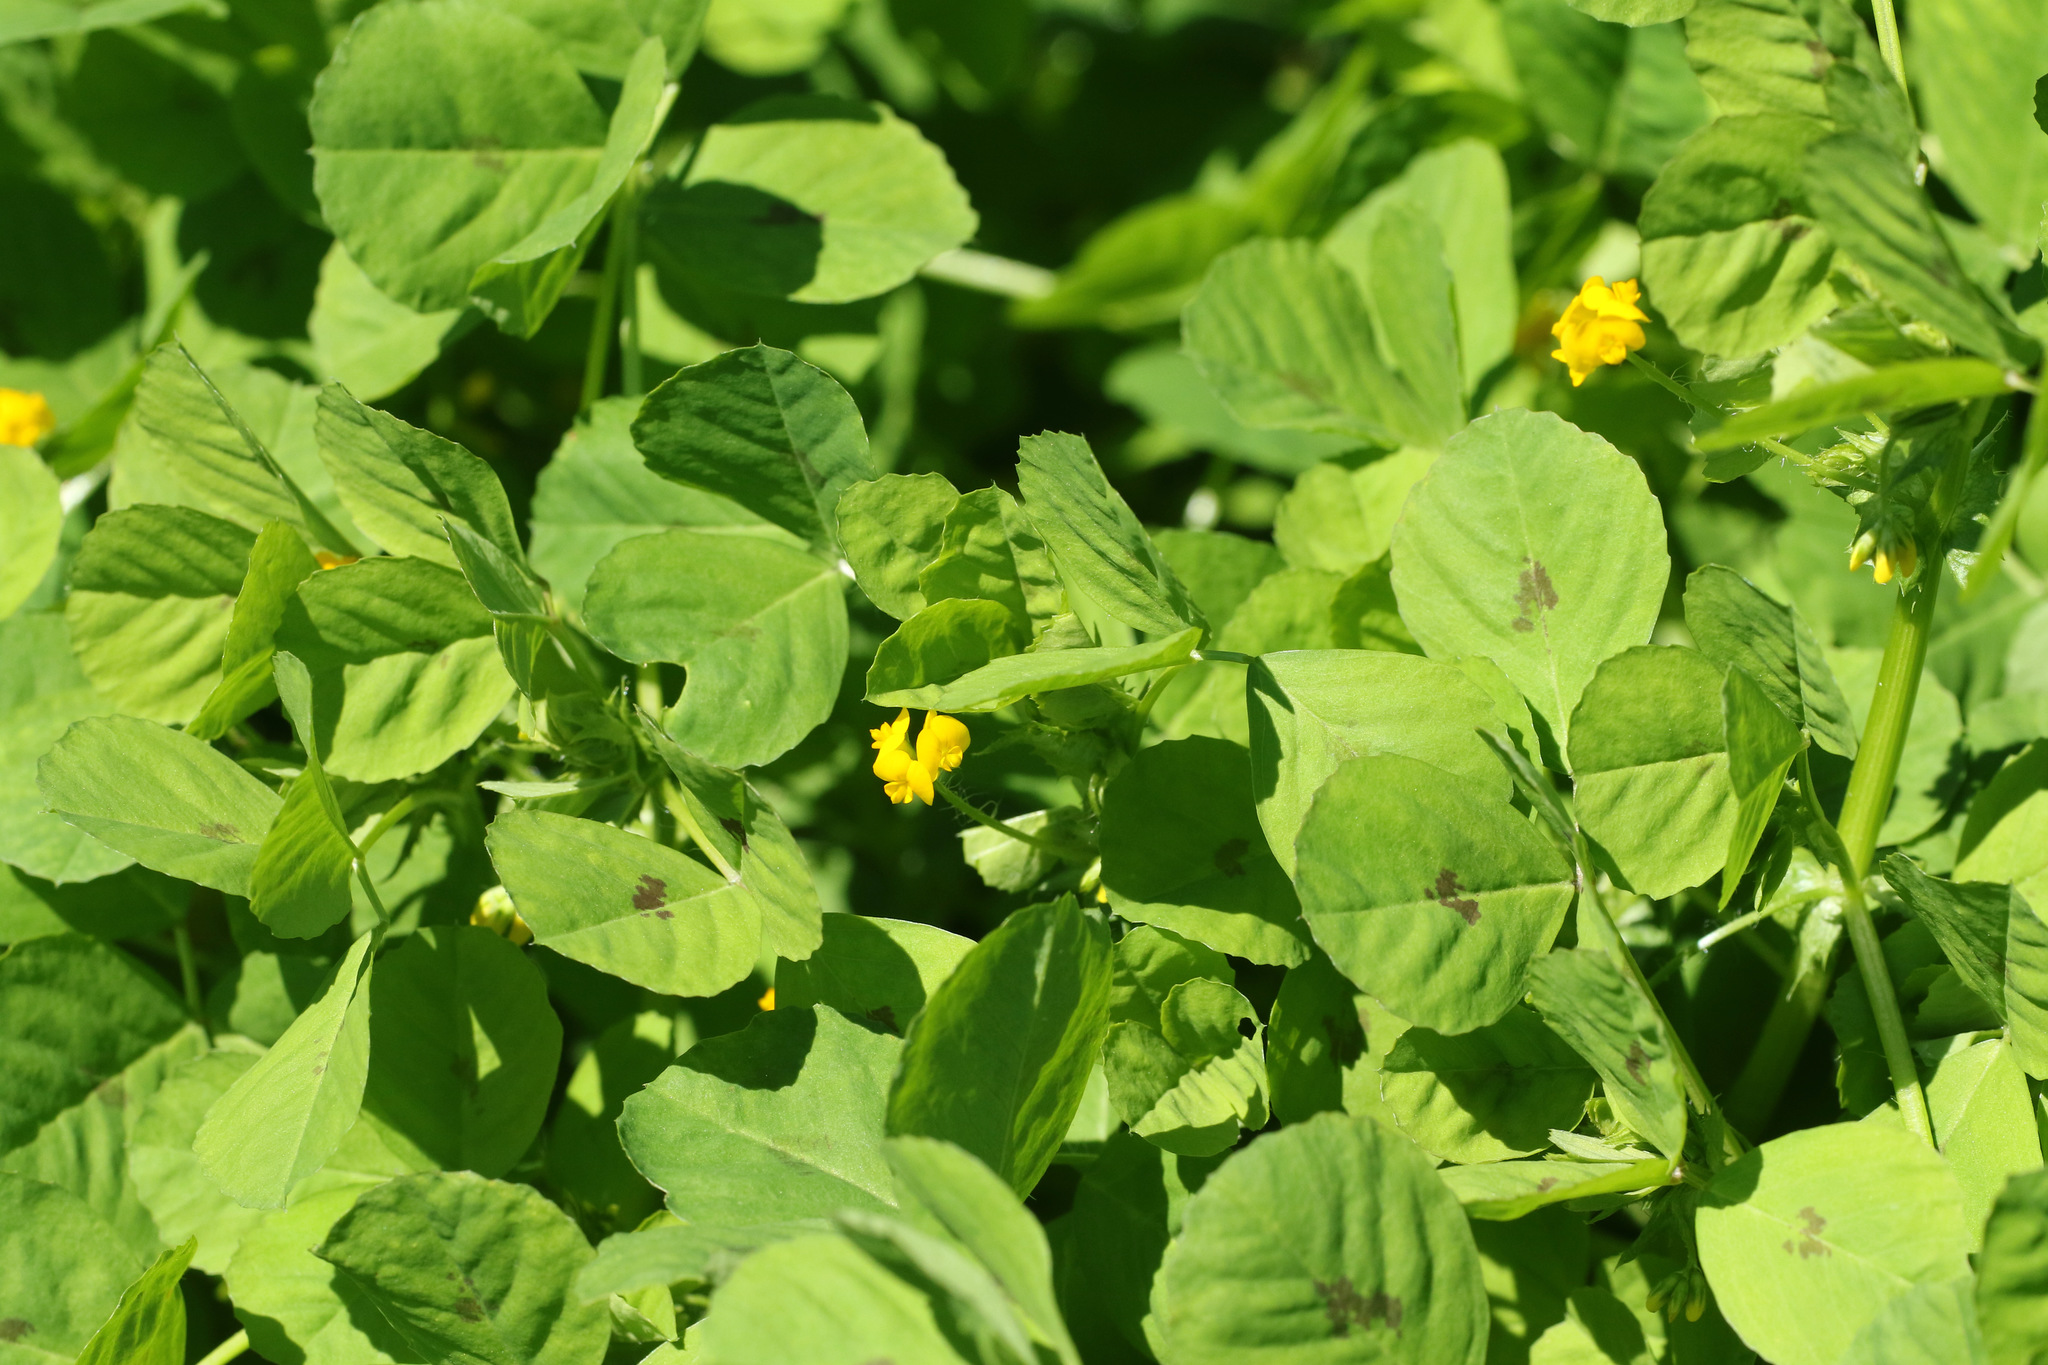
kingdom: Plantae
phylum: Tracheophyta
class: Magnoliopsida
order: Fabales
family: Fabaceae
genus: Medicago
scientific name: Medicago arabica
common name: Spotted medick
